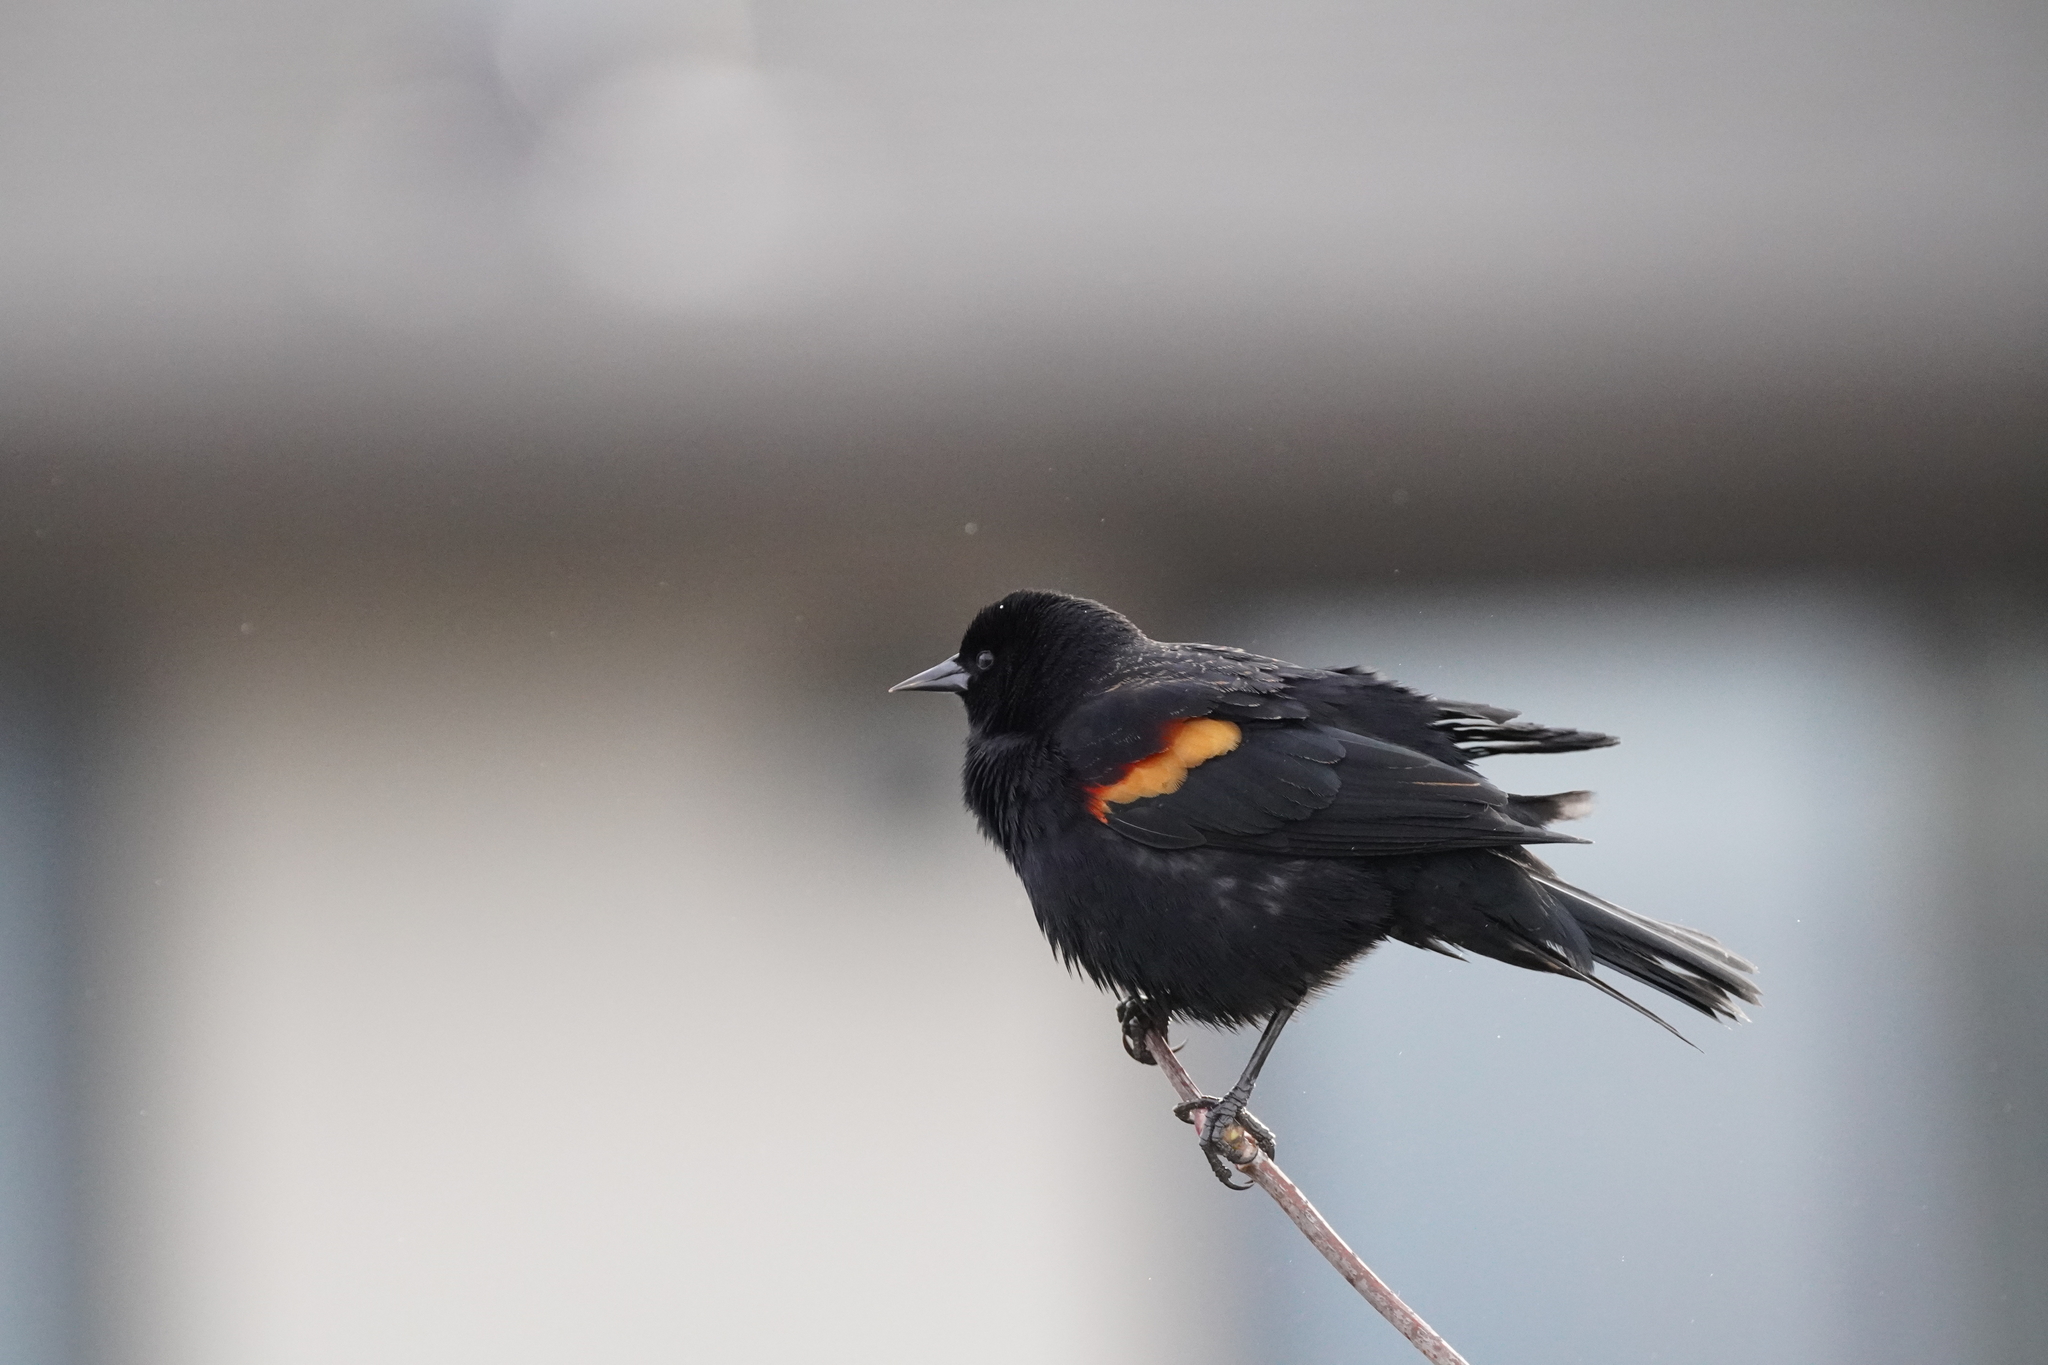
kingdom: Animalia
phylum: Chordata
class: Aves
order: Passeriformes
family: Icteridae
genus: Agelaius
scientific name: Agelaius phoeniceus
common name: Red-winged blackbird
